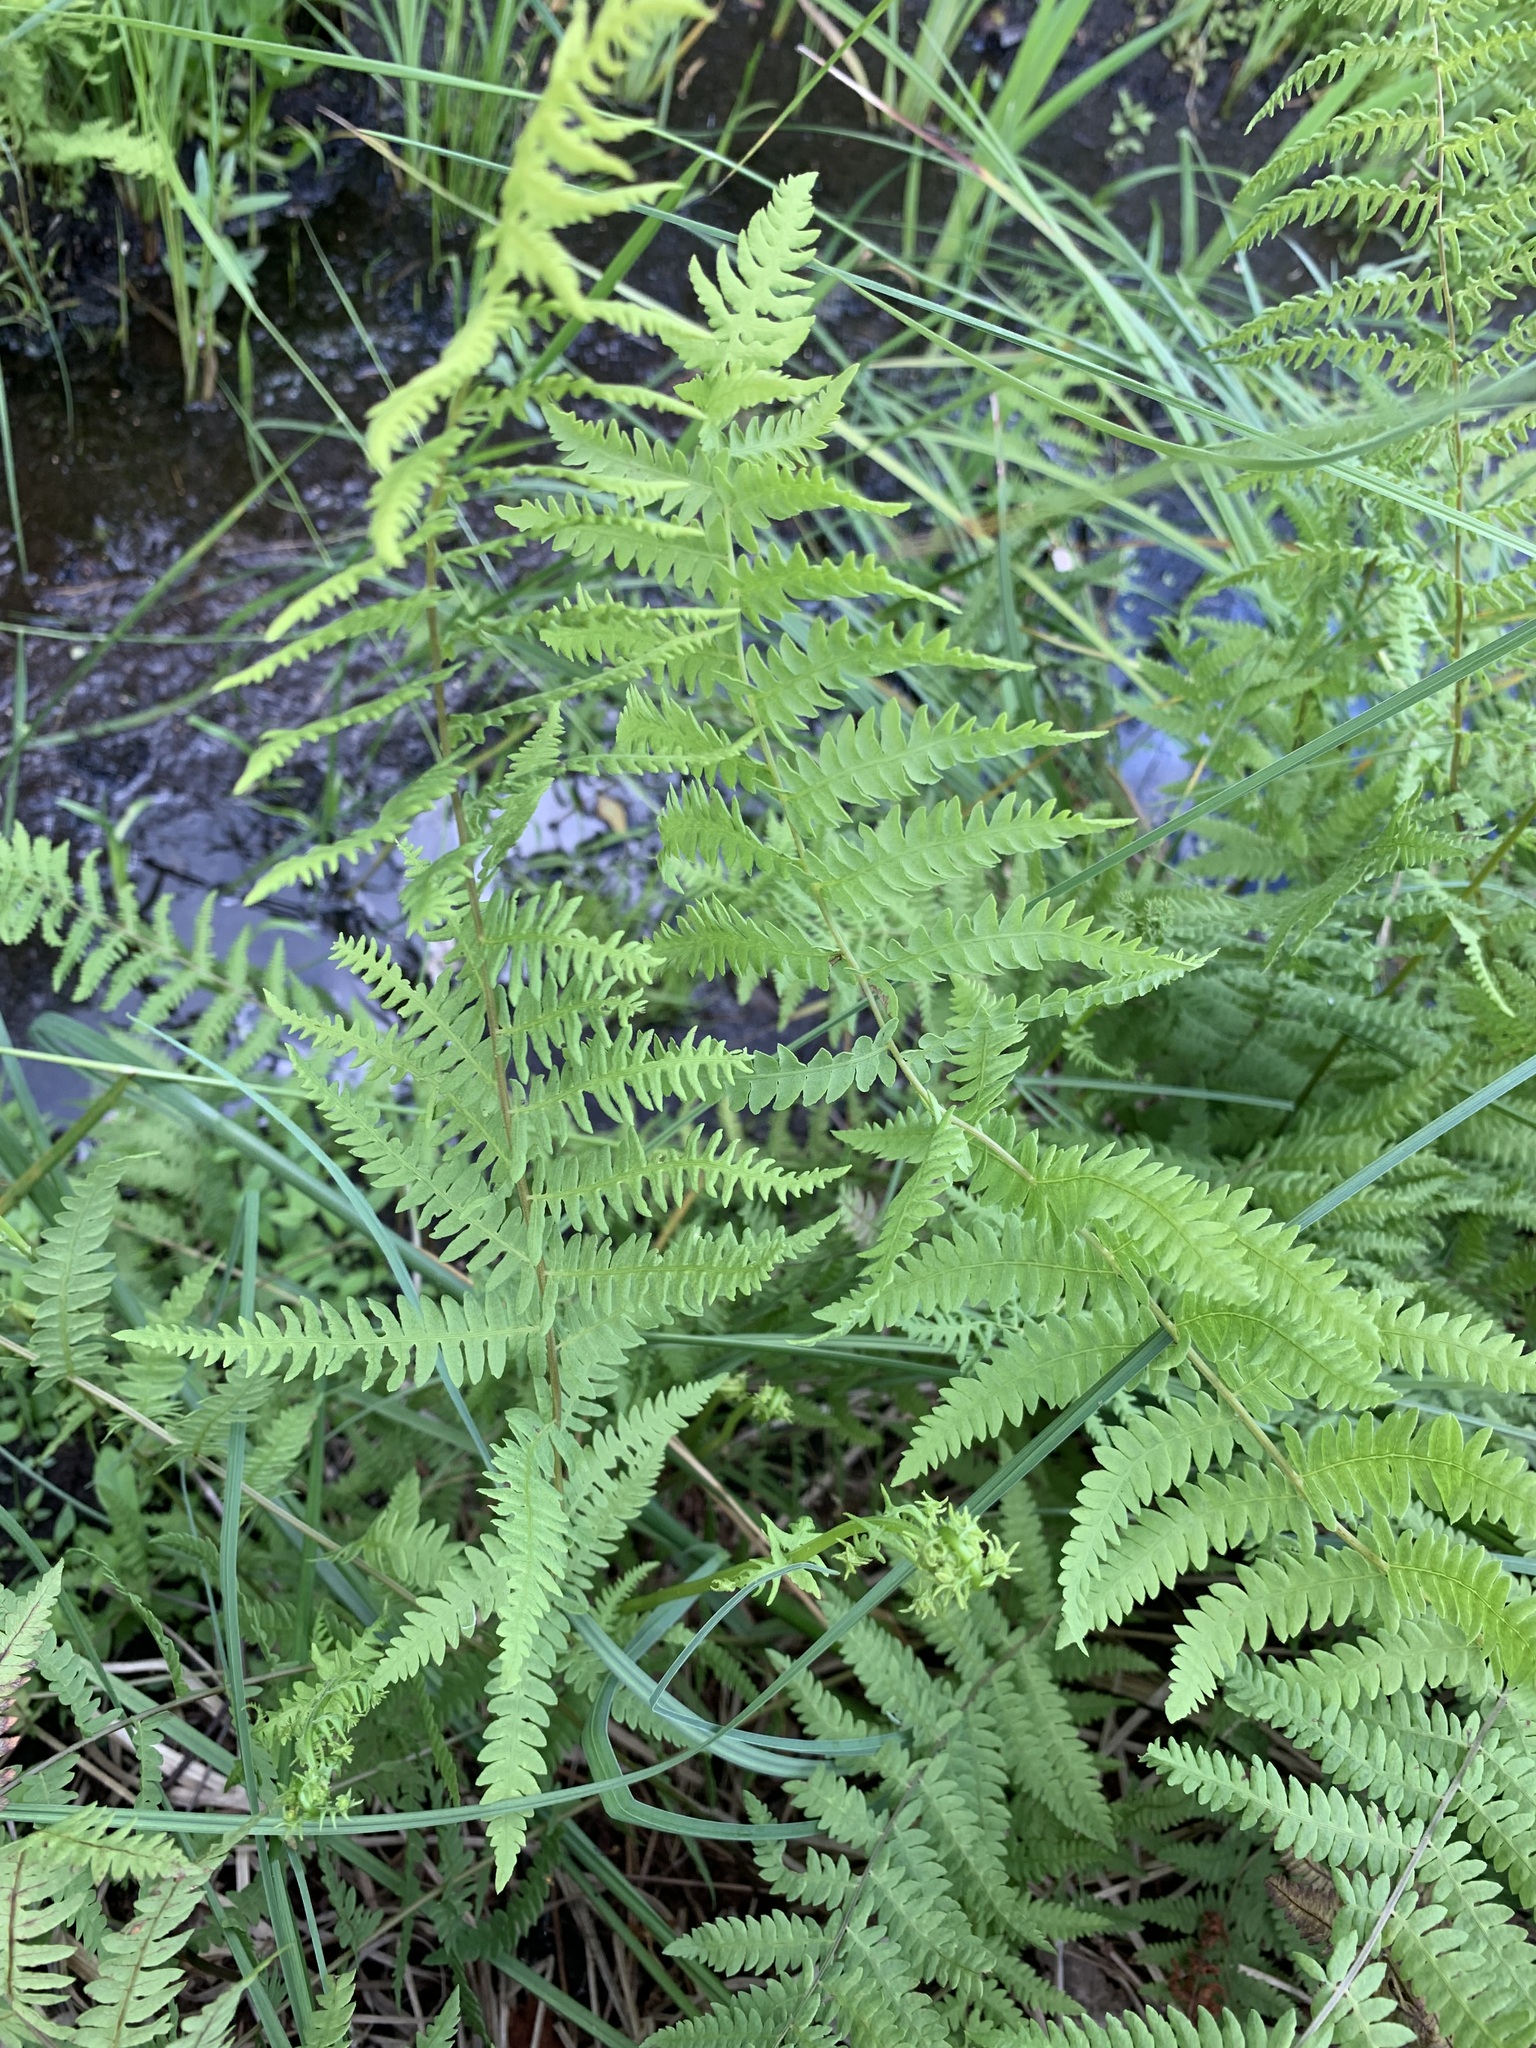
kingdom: Plantae
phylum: Tracheophyta
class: Polypodiopsida
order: Polypodiales
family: Thelypteridaceae
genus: Thelypteris
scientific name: Thelypteris palustris
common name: Marsh fern
